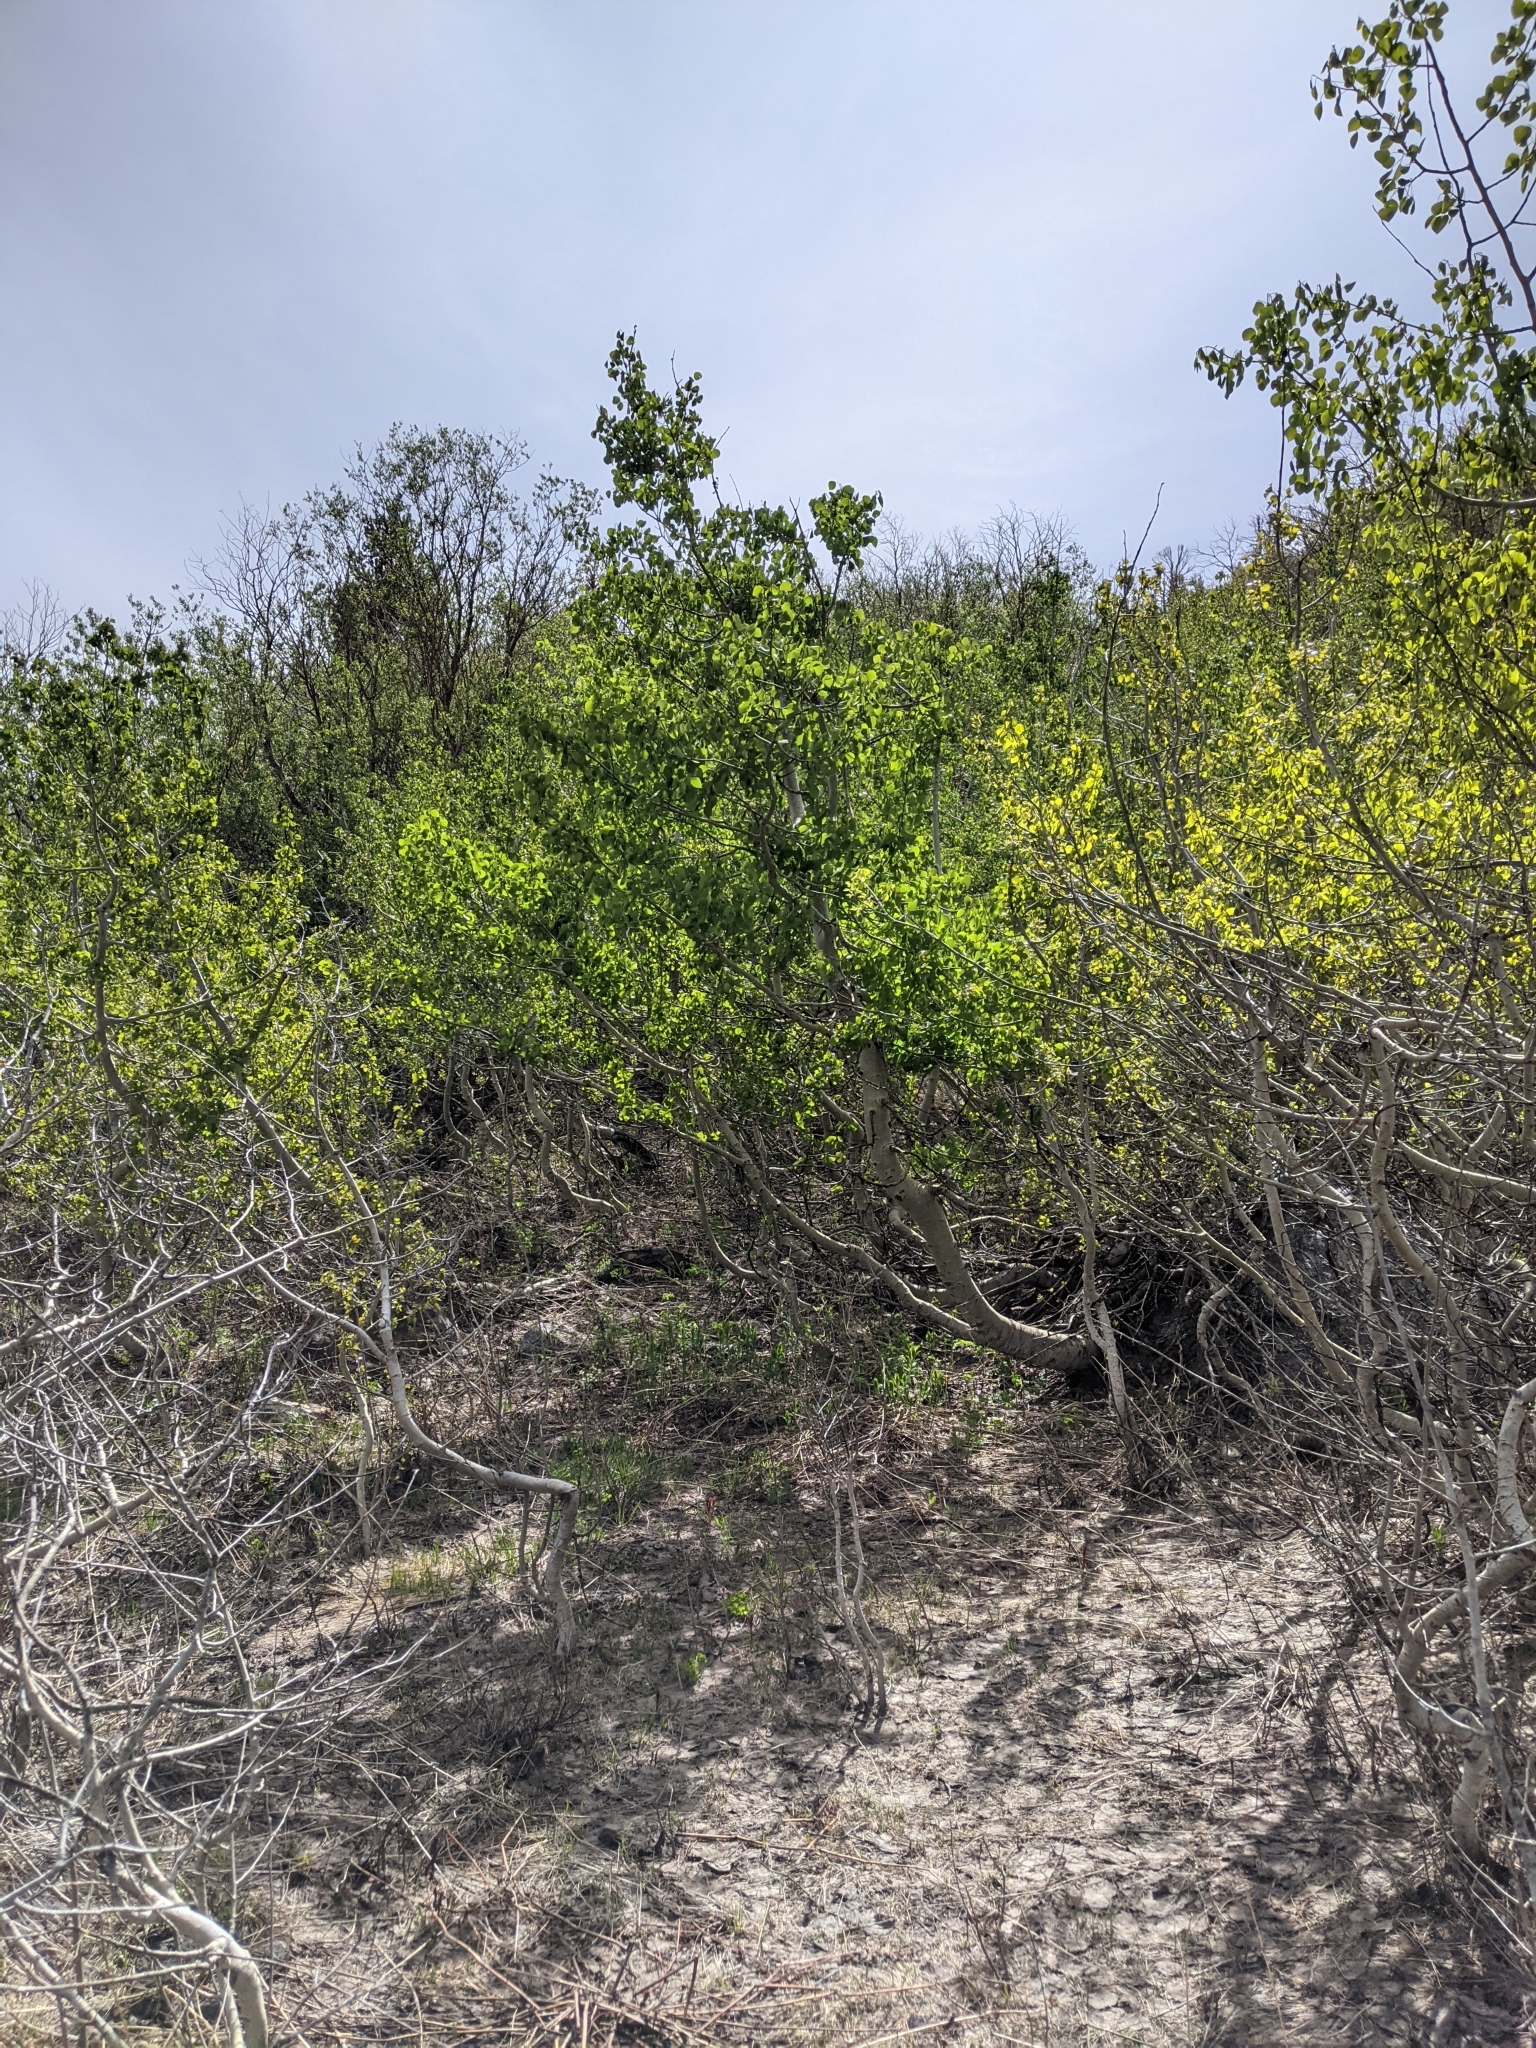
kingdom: Plantae
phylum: Tracheophyta
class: Magnoliopsida
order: Malpighiales
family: Salicaceae
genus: Populus
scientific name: Populus tremuloides
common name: Quaking aspen
